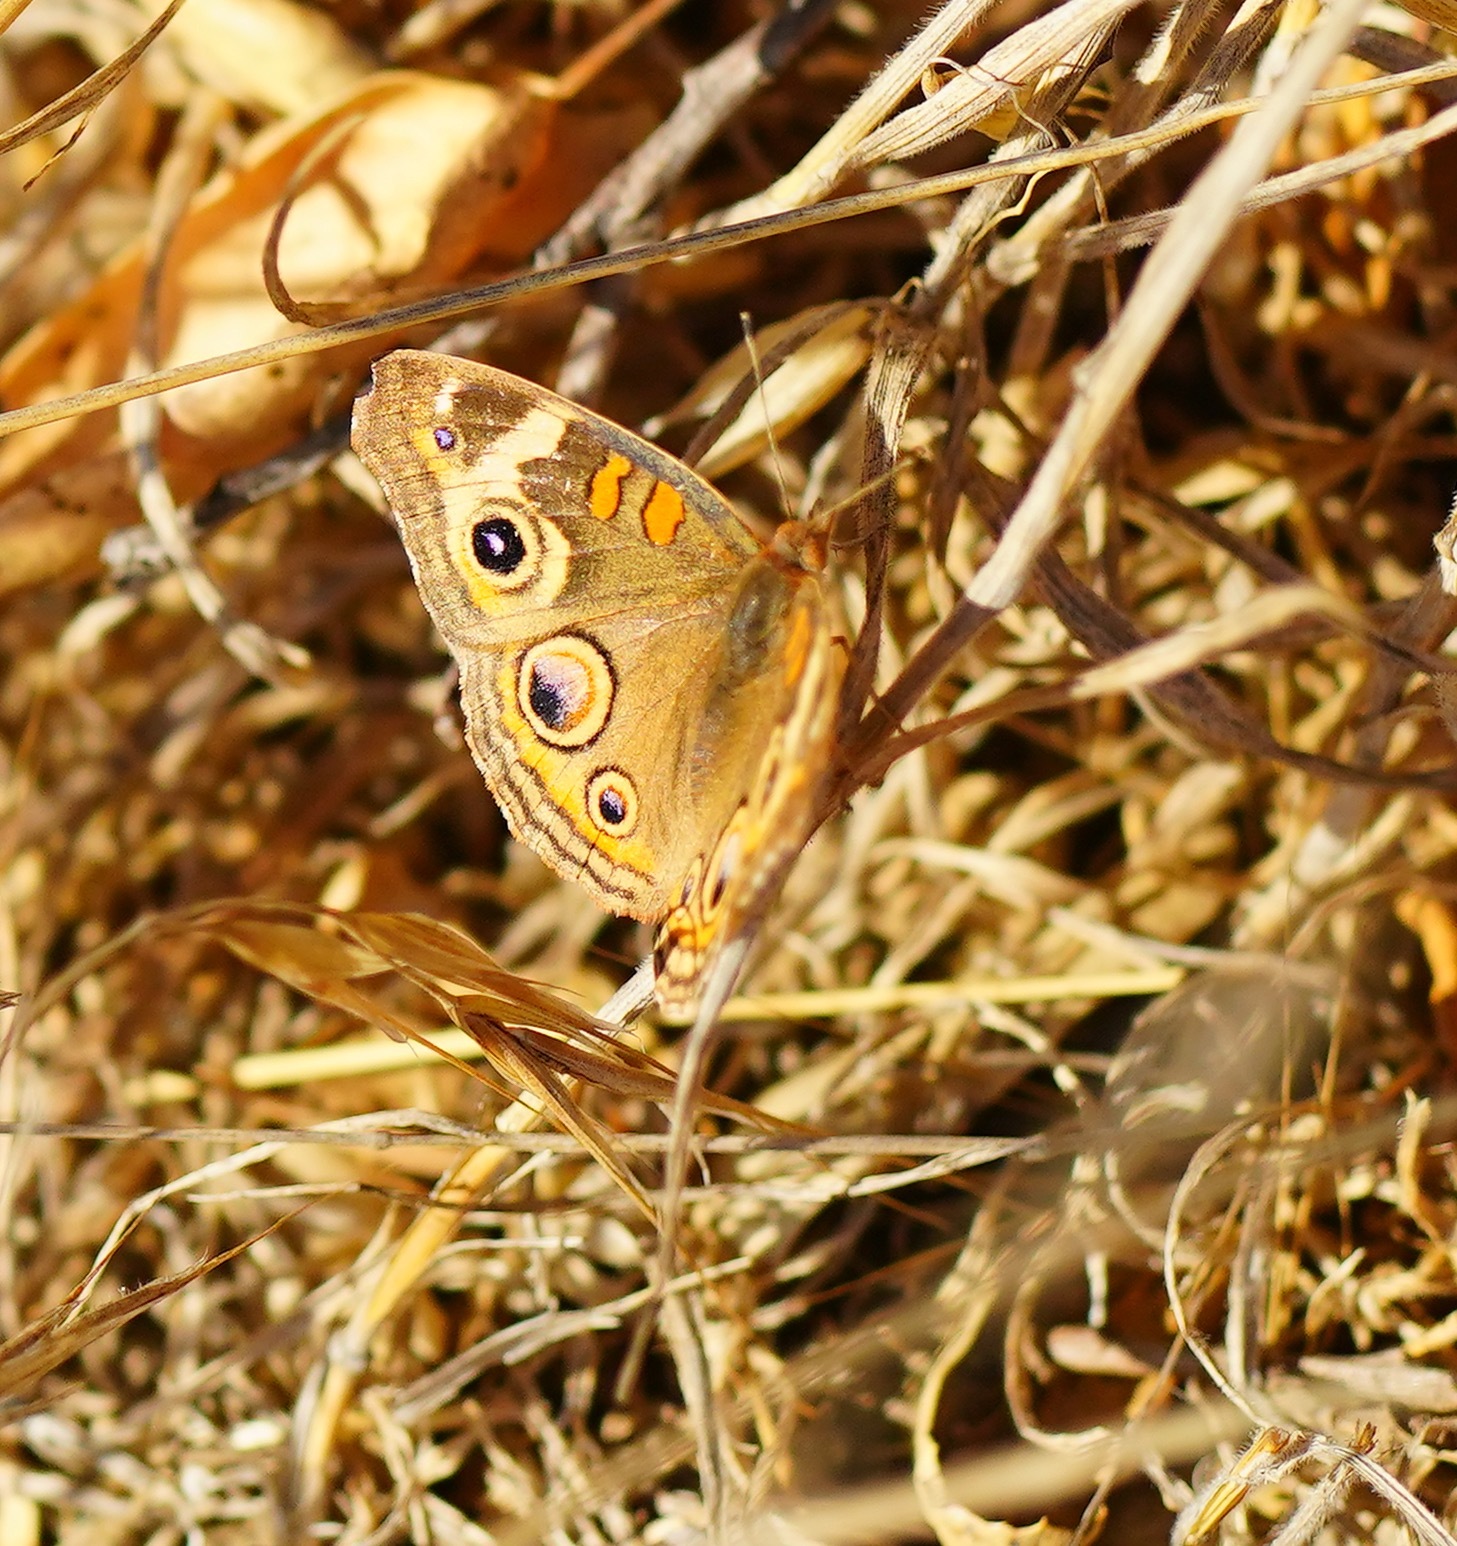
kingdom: Animalia
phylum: Arthropoda
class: Insecta
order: Lepidoptera
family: Nymphalidae
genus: Junonia
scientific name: Junonia grisea
